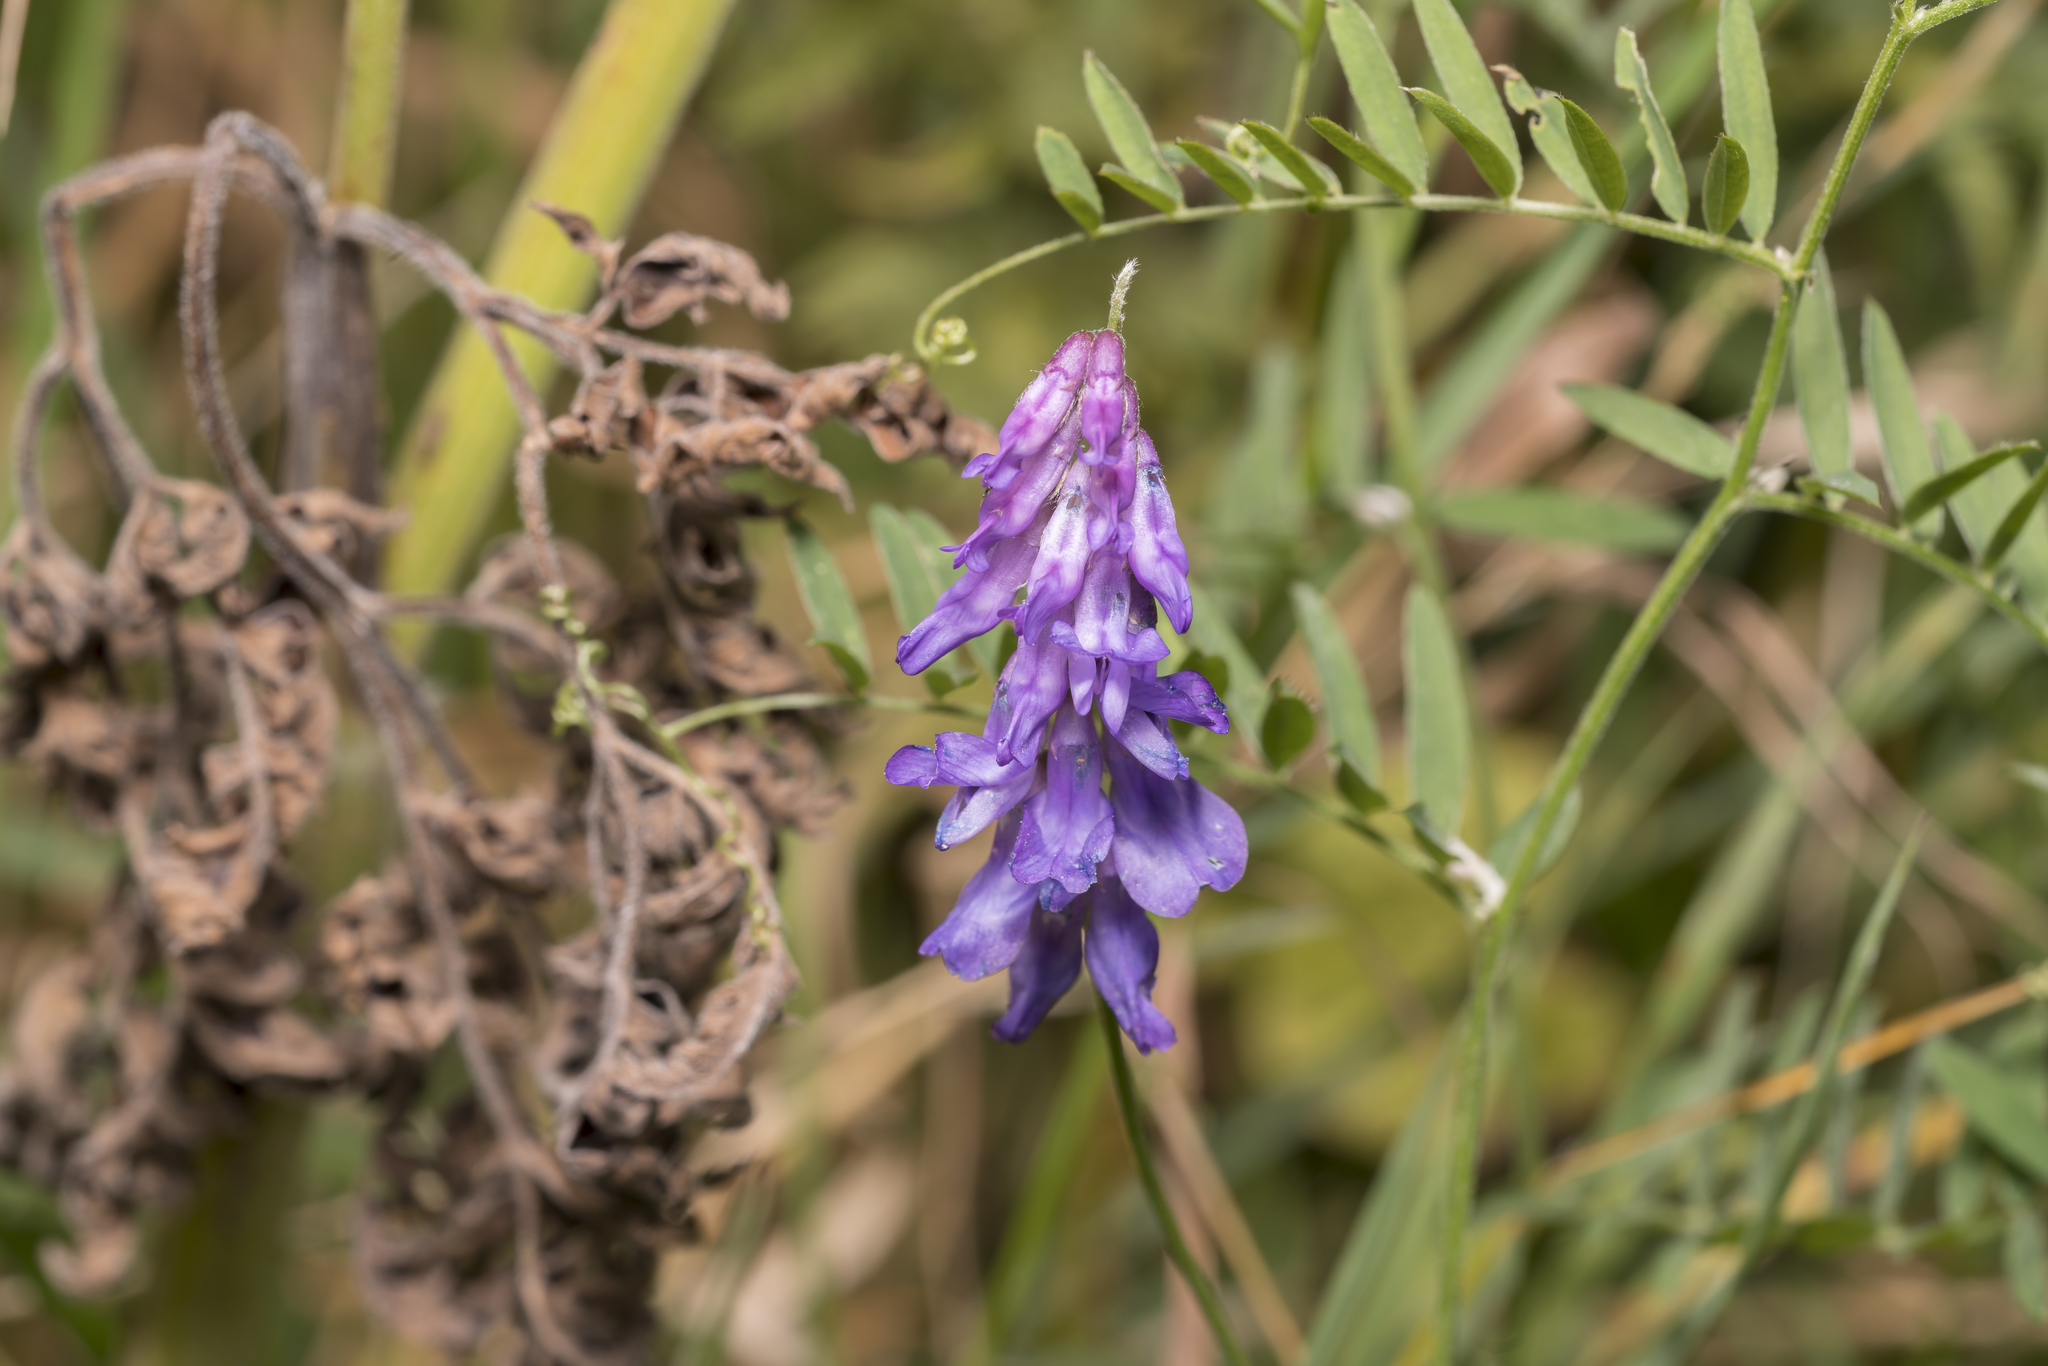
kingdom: Plantae
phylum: Tracheophyta
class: Magnoliopsida
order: Fabales
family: Fabaceae
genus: Vicia
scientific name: Vicia cracca
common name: Bird vetch
